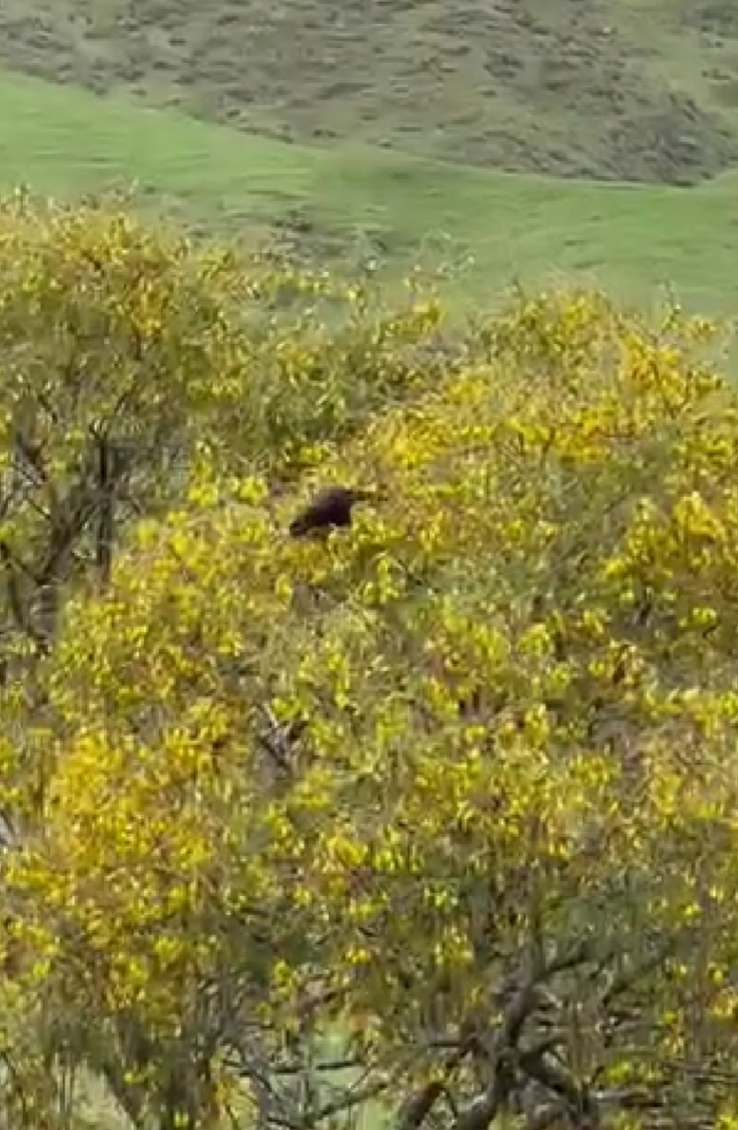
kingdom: Animalia
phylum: Chordata
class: Aves
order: Psittaciformes
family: Psittacidae
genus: Nestor
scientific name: Nestor meridionalis
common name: New zealand kaka
